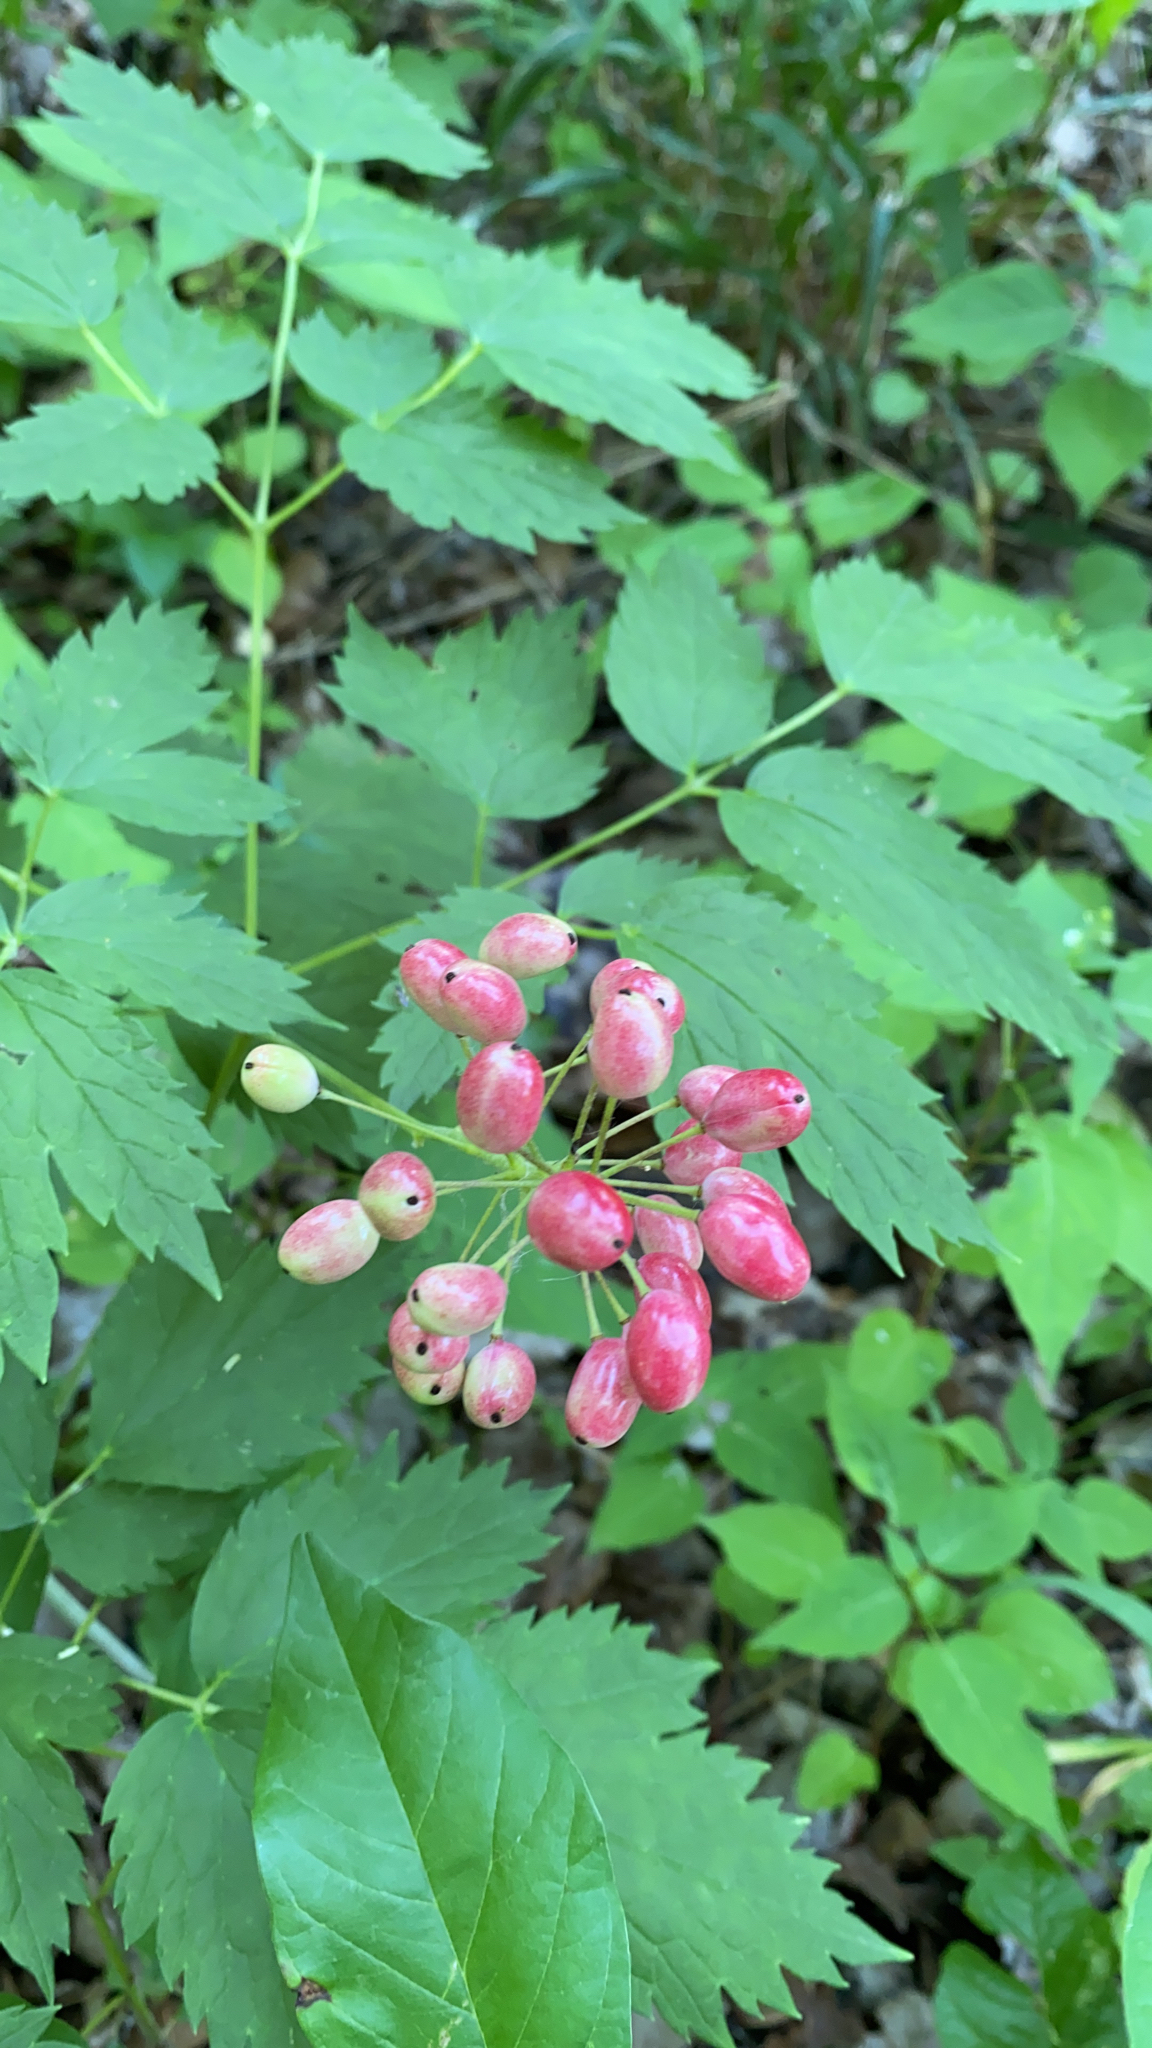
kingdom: Plantae
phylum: Tracheophyta
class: Magnoliopsida
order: Ranunculales
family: Ranunculaceae
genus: Actaea
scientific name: Actaea rubra
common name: Red baneberry
